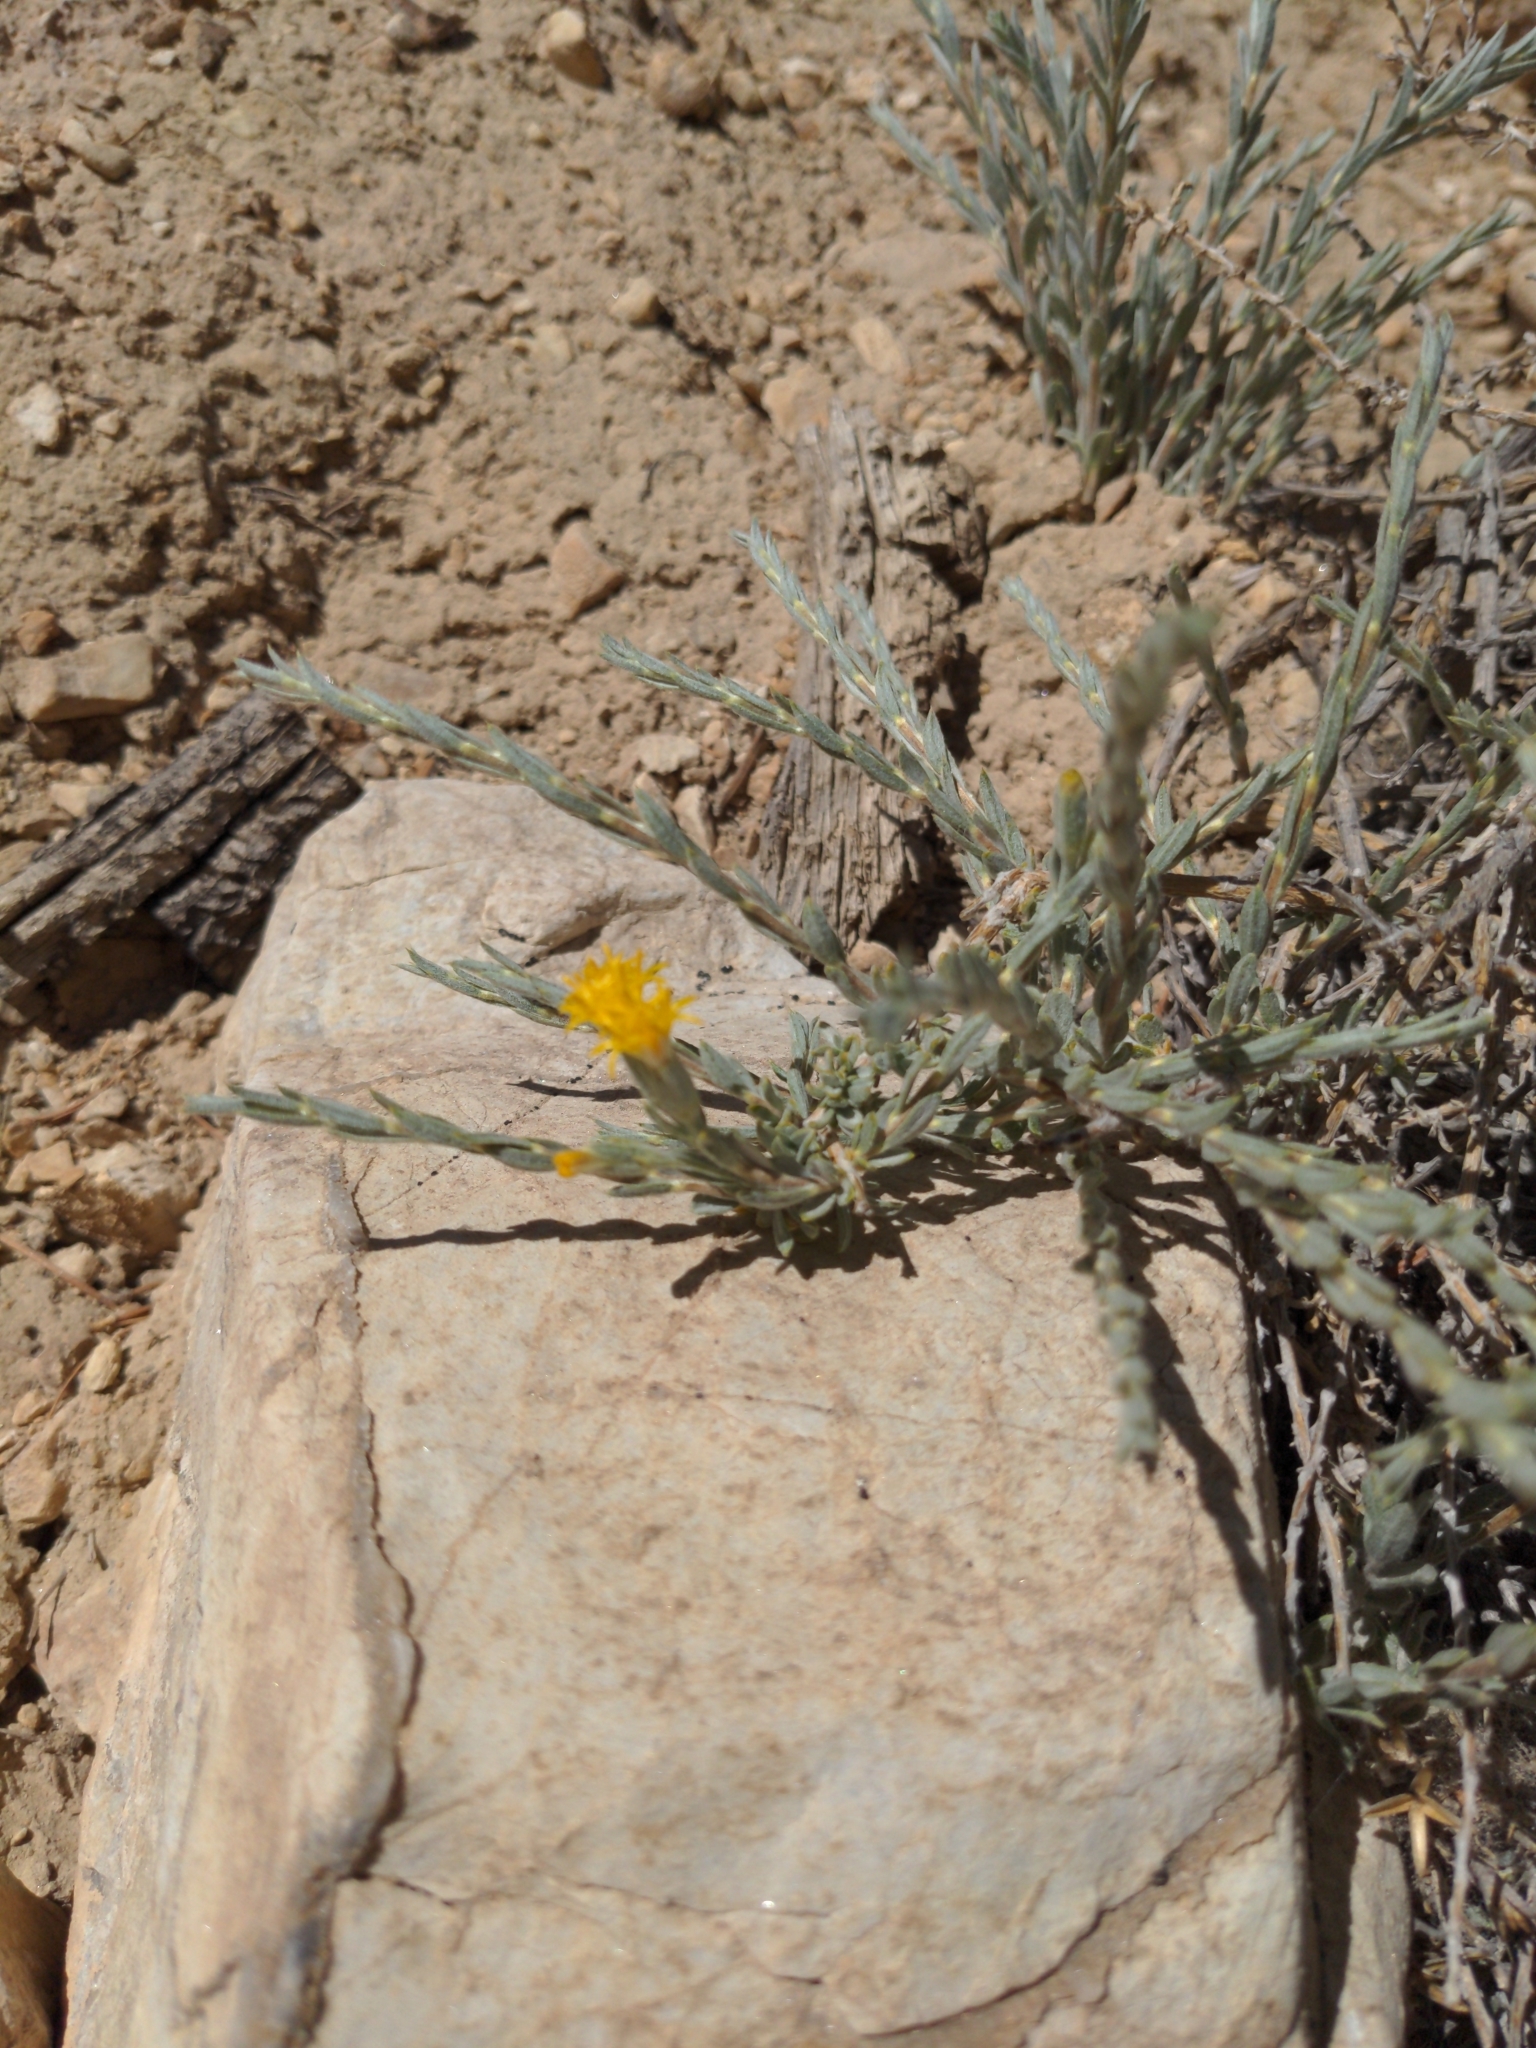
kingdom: Plantae
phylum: Tracheophyta
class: Magnoliopsida
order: Asterales
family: Asteraceae
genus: Tetradymia
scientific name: Tetradymia canescens
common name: Spineless horsebrush
